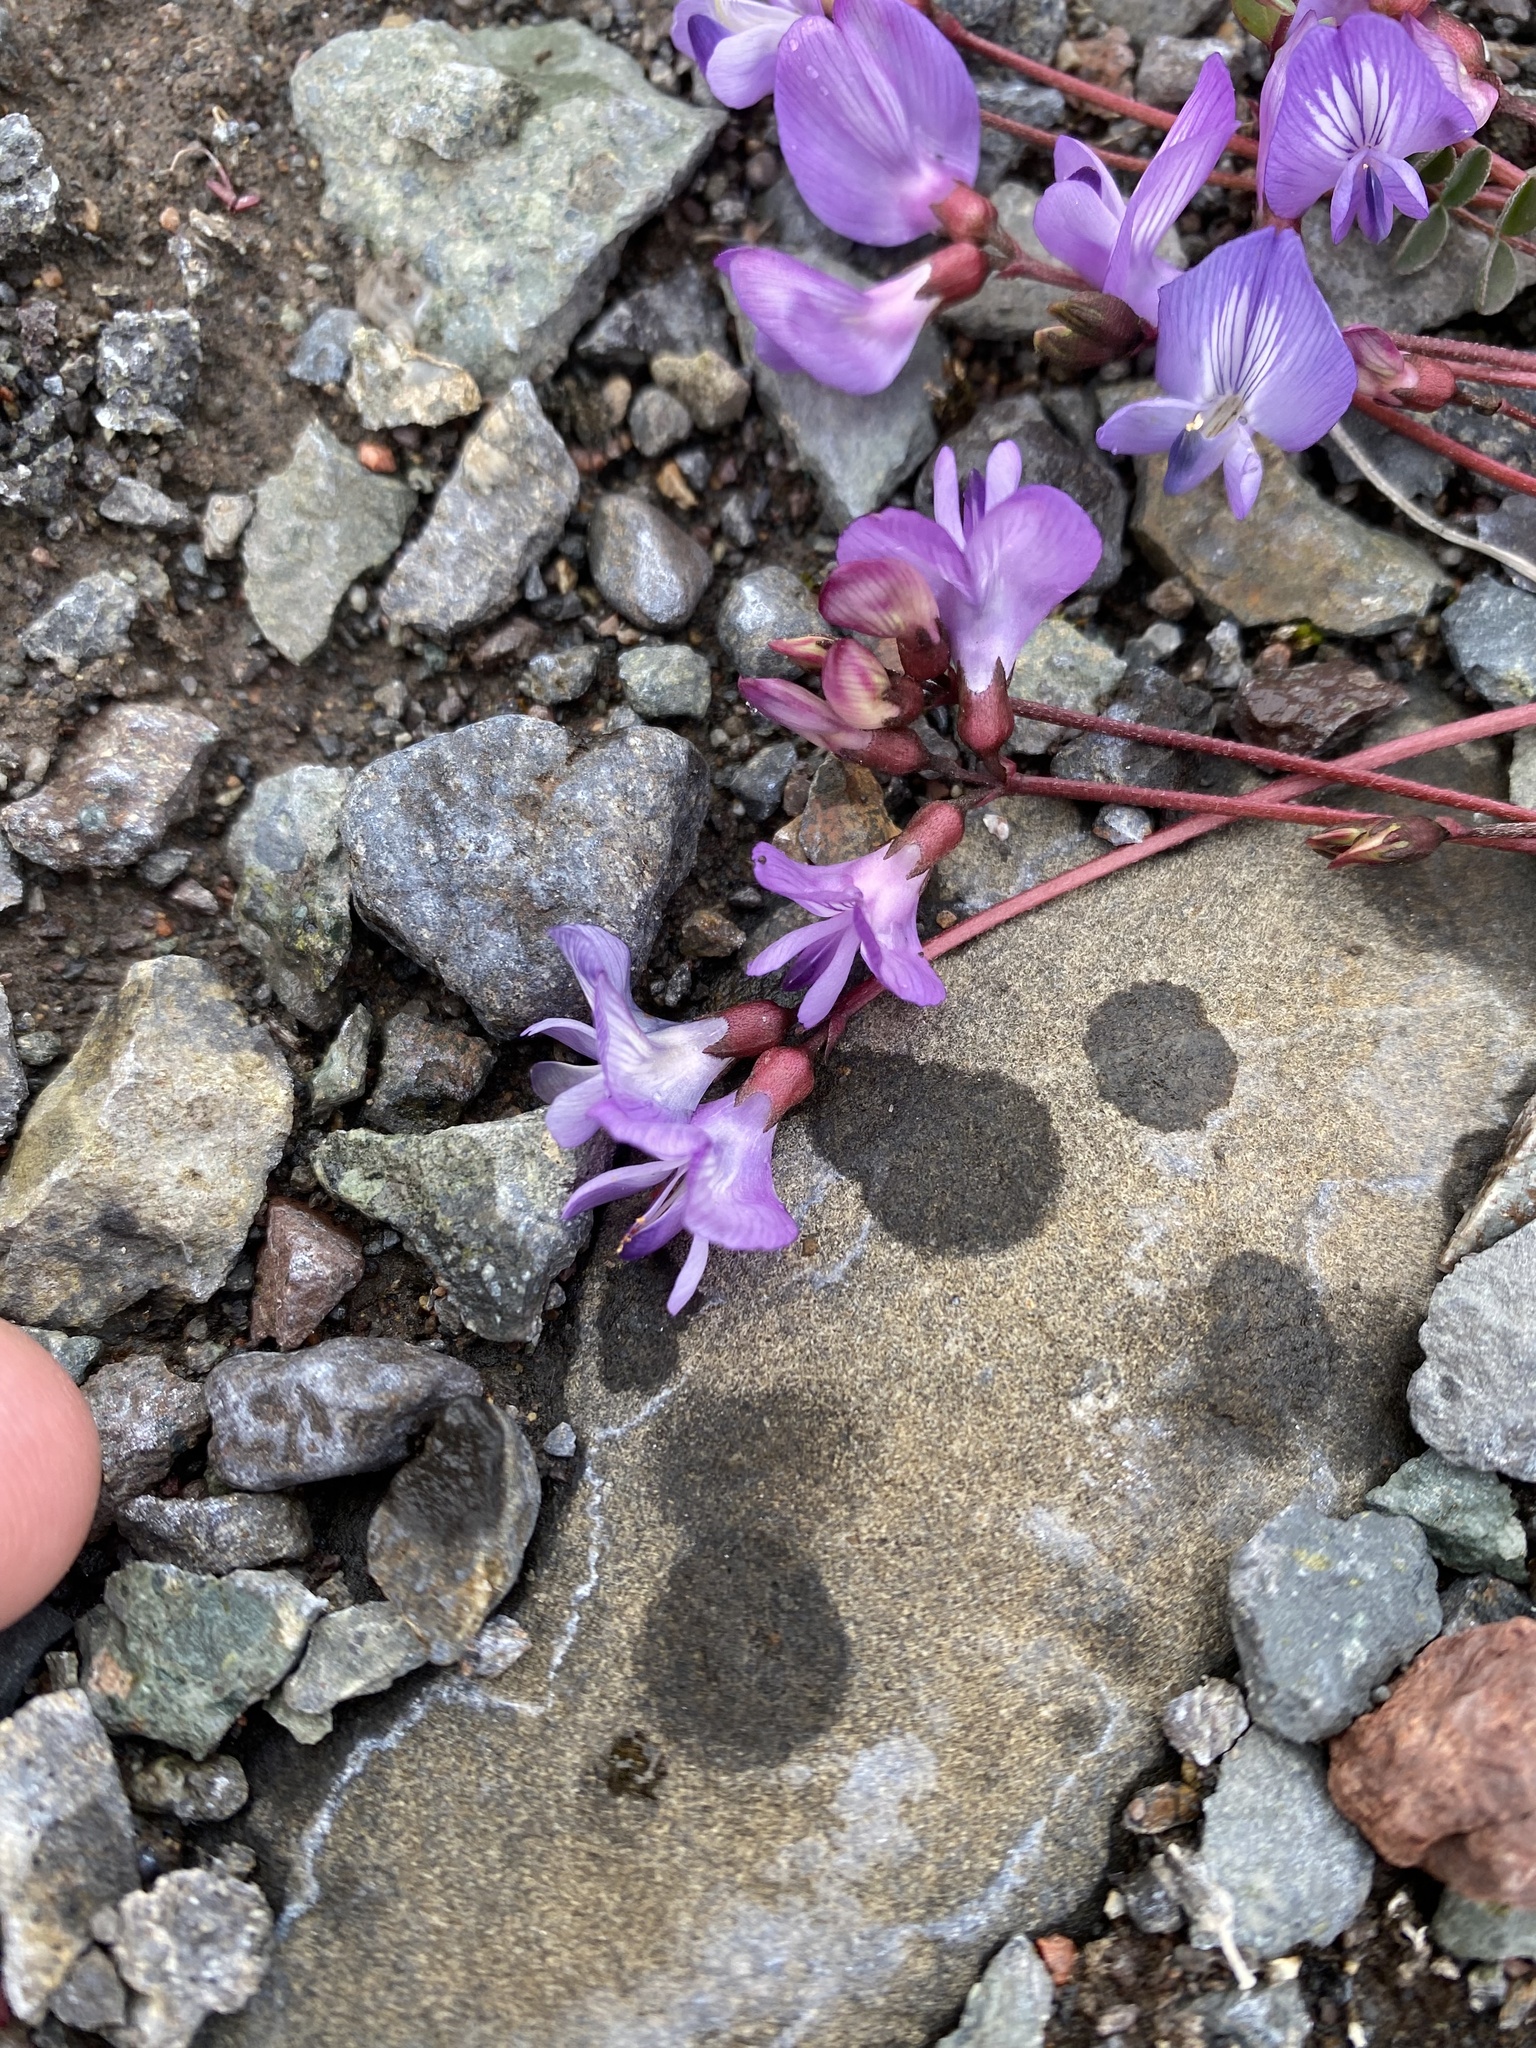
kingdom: Plantae
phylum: Tracheophyta
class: Magnoliopsida
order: Fabales
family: Fabaceae
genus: Astragalus
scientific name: Astragalus nutzotinensis
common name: Nutzotin milk-vetch
